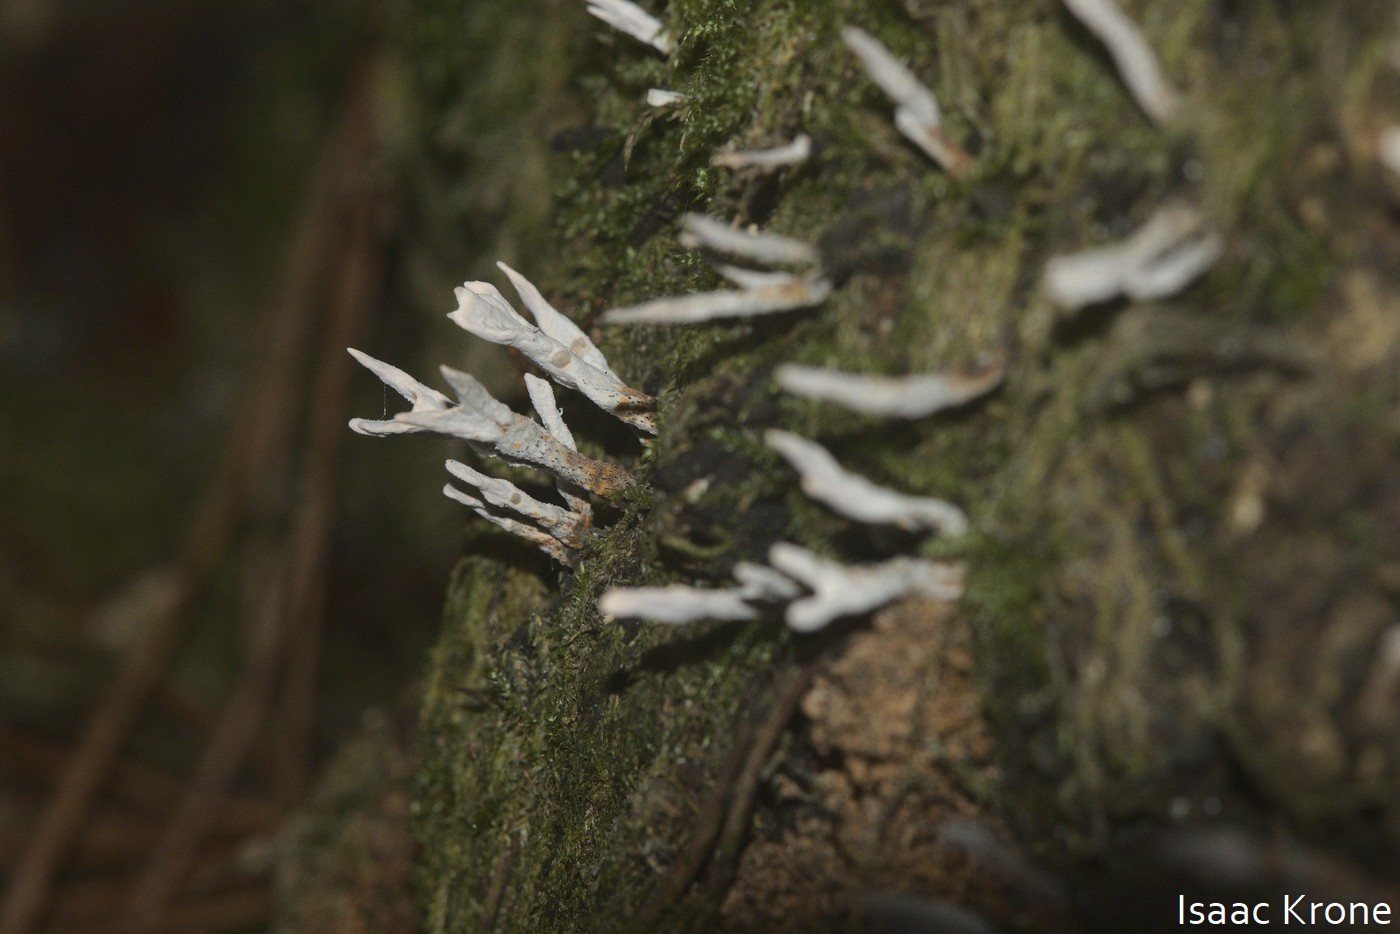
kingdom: Fungi
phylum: Ascomycota
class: Sordariomycetes
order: Xylariales
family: Xylariaceae
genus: Xylaria
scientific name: Xylaria hypoxylon
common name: Candle-snuff fungus
